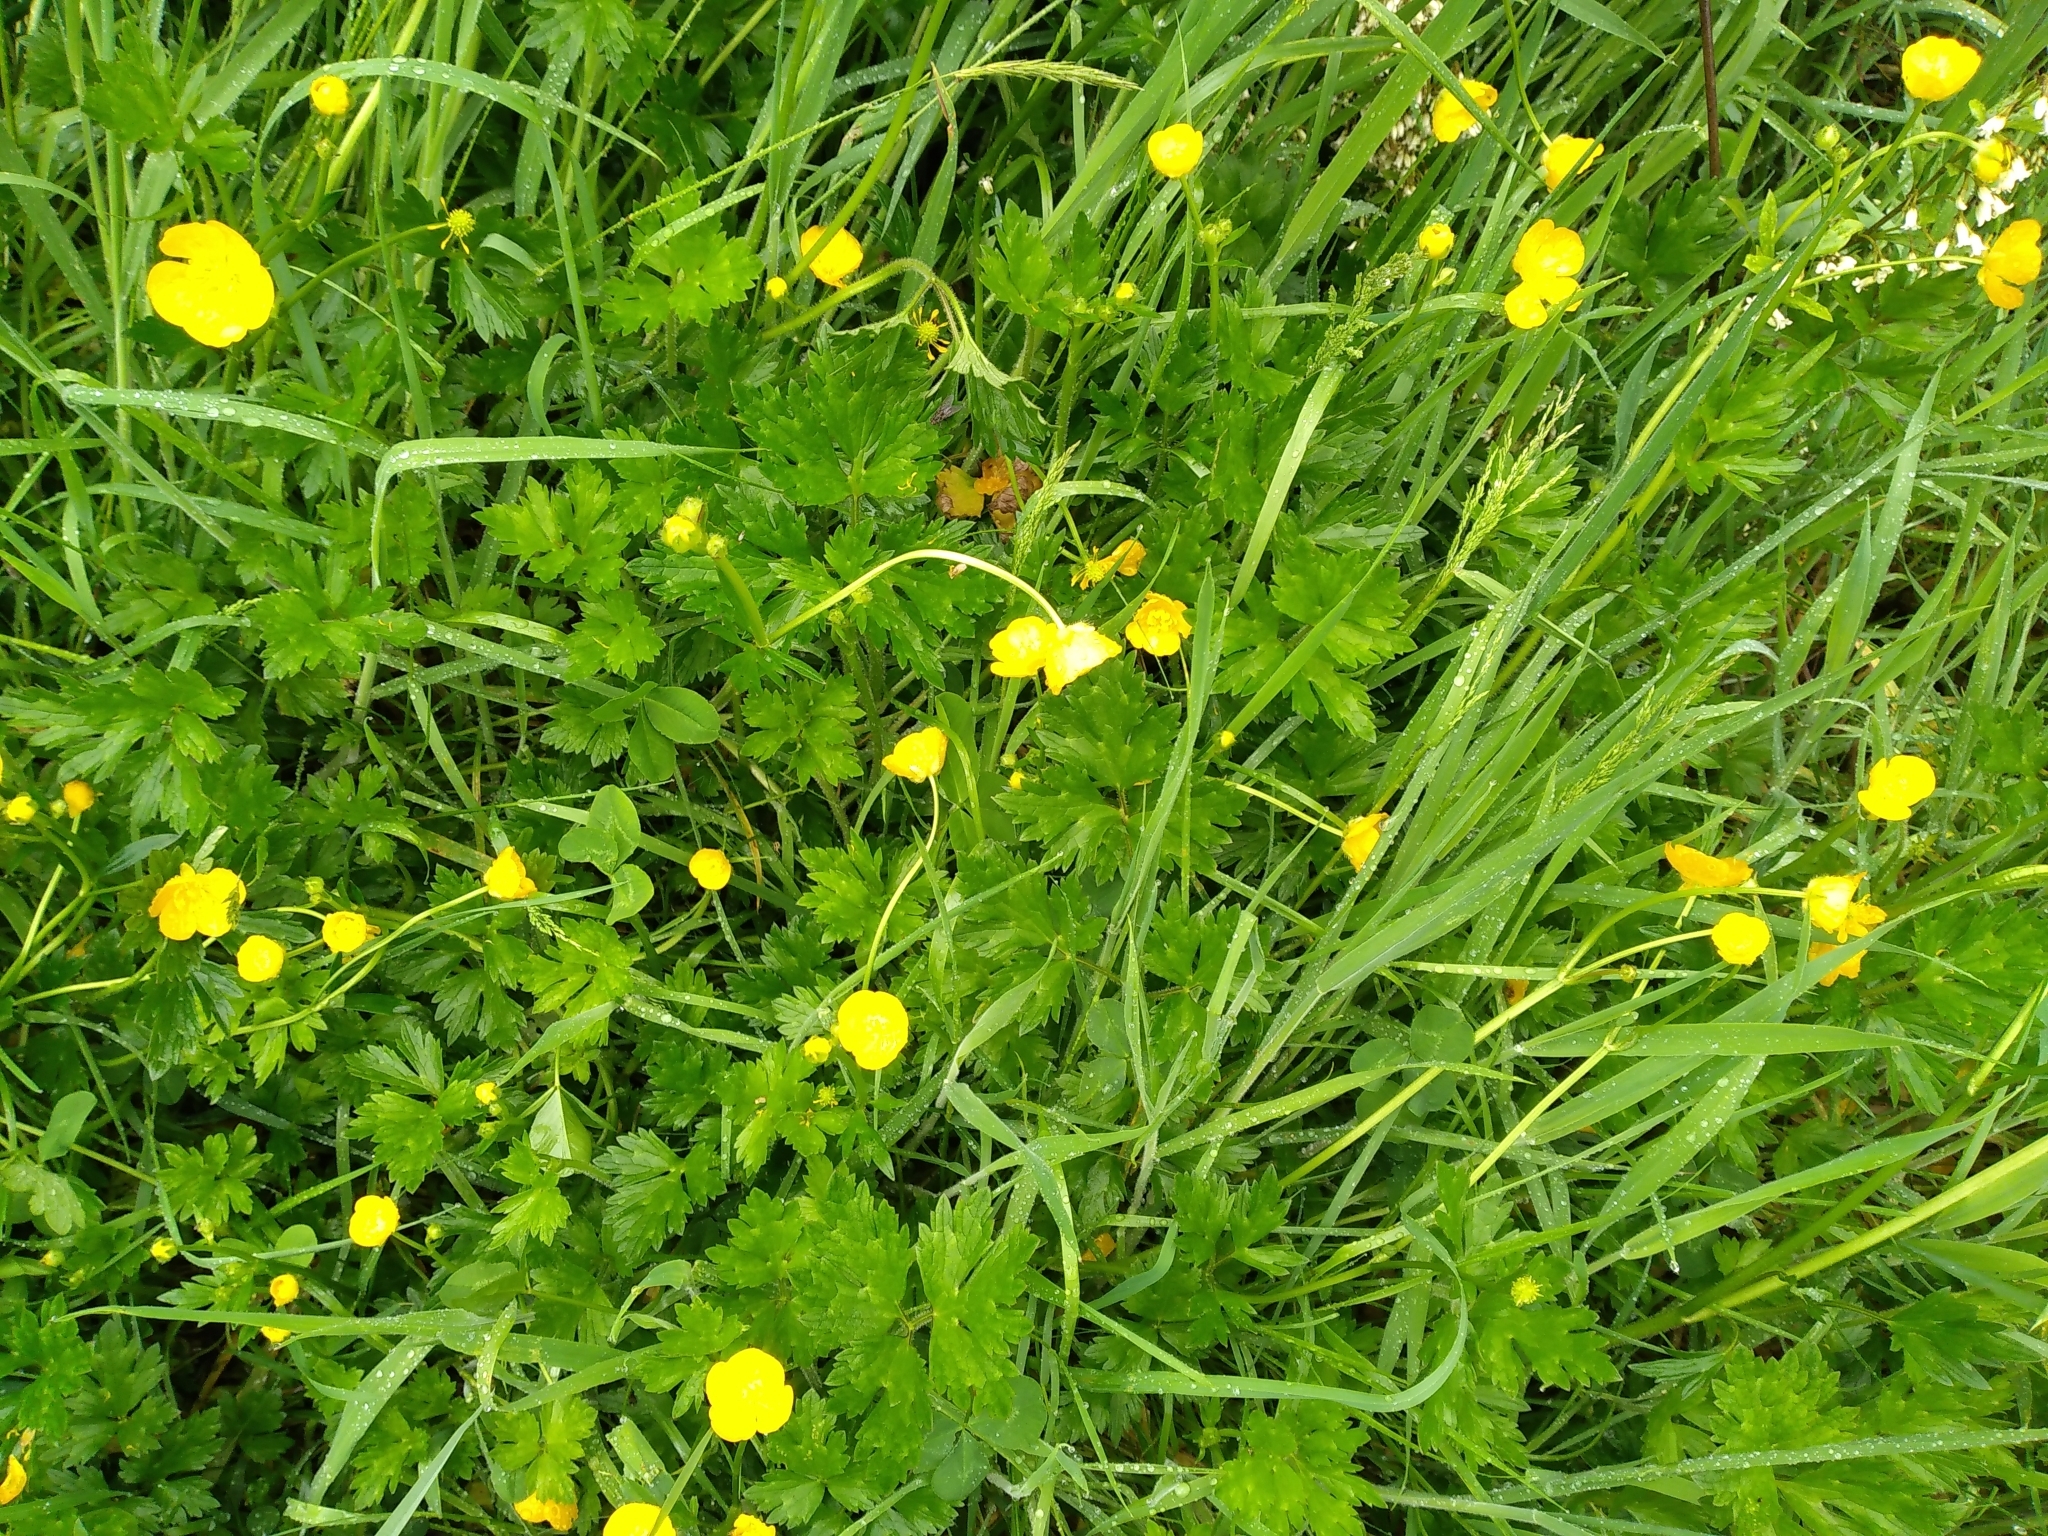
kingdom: Plantae
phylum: Tracheophyta
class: Magnoliopsida
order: Ranunculales
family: Ranunculaceae
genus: Ranunculus
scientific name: Ranunculus repens
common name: Creeping buttercup
